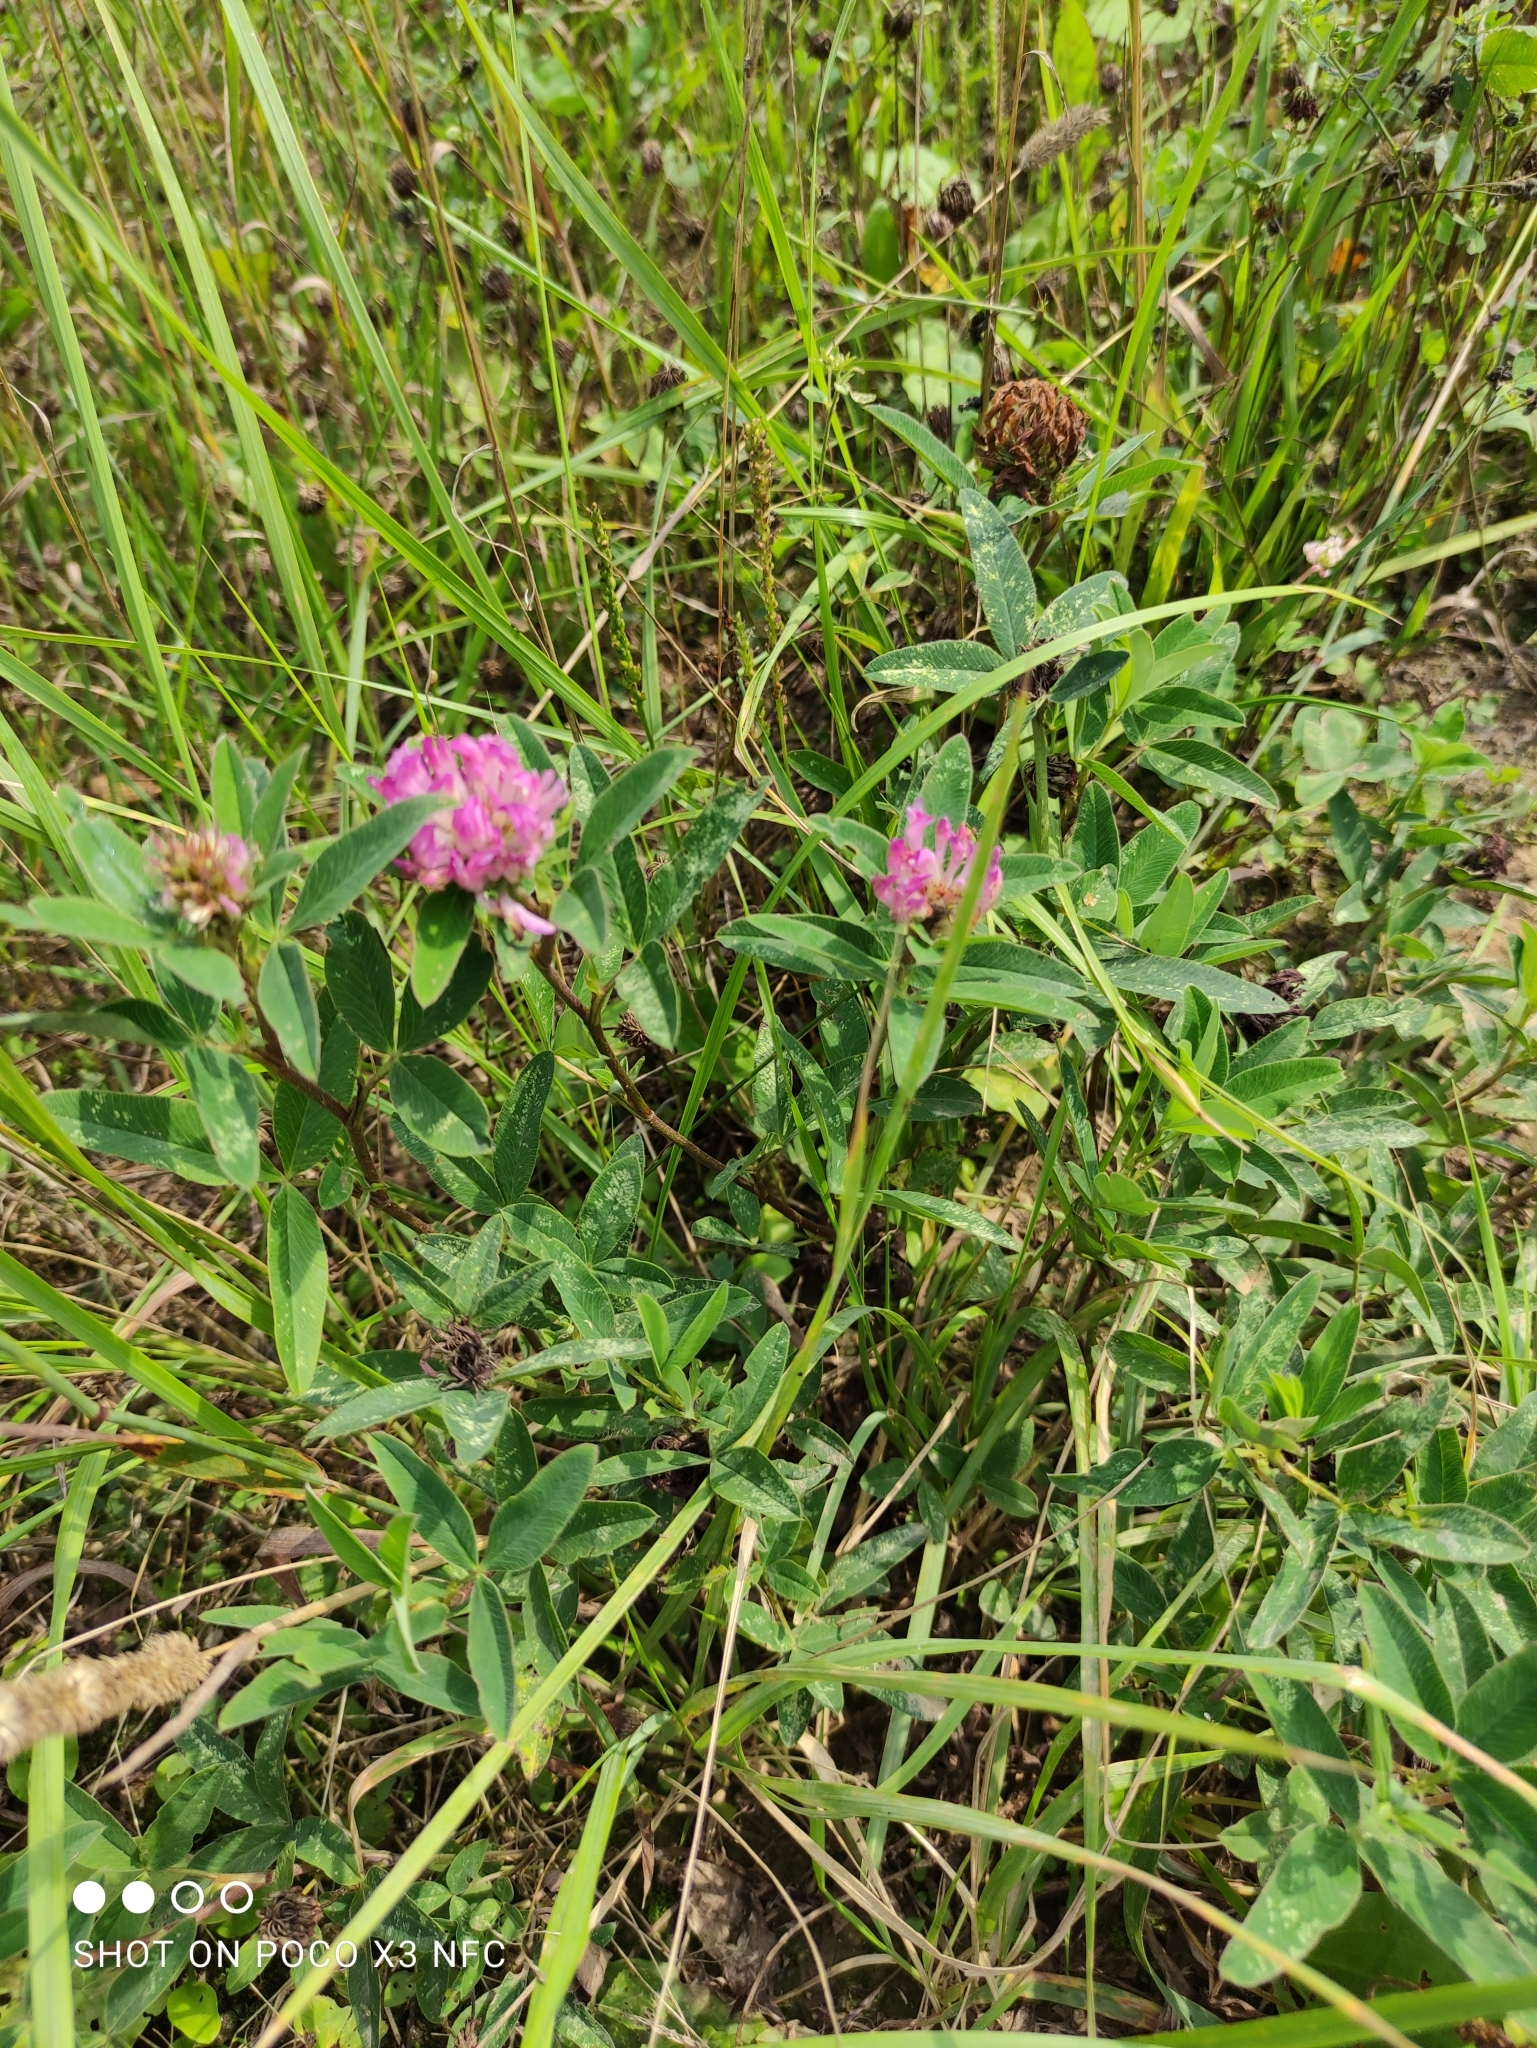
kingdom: Plantae
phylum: Tracheophyta
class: Magnoliopsida
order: Fabales
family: Fabaceae
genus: Trifolium
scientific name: Trifolium pratense
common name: Red clover
